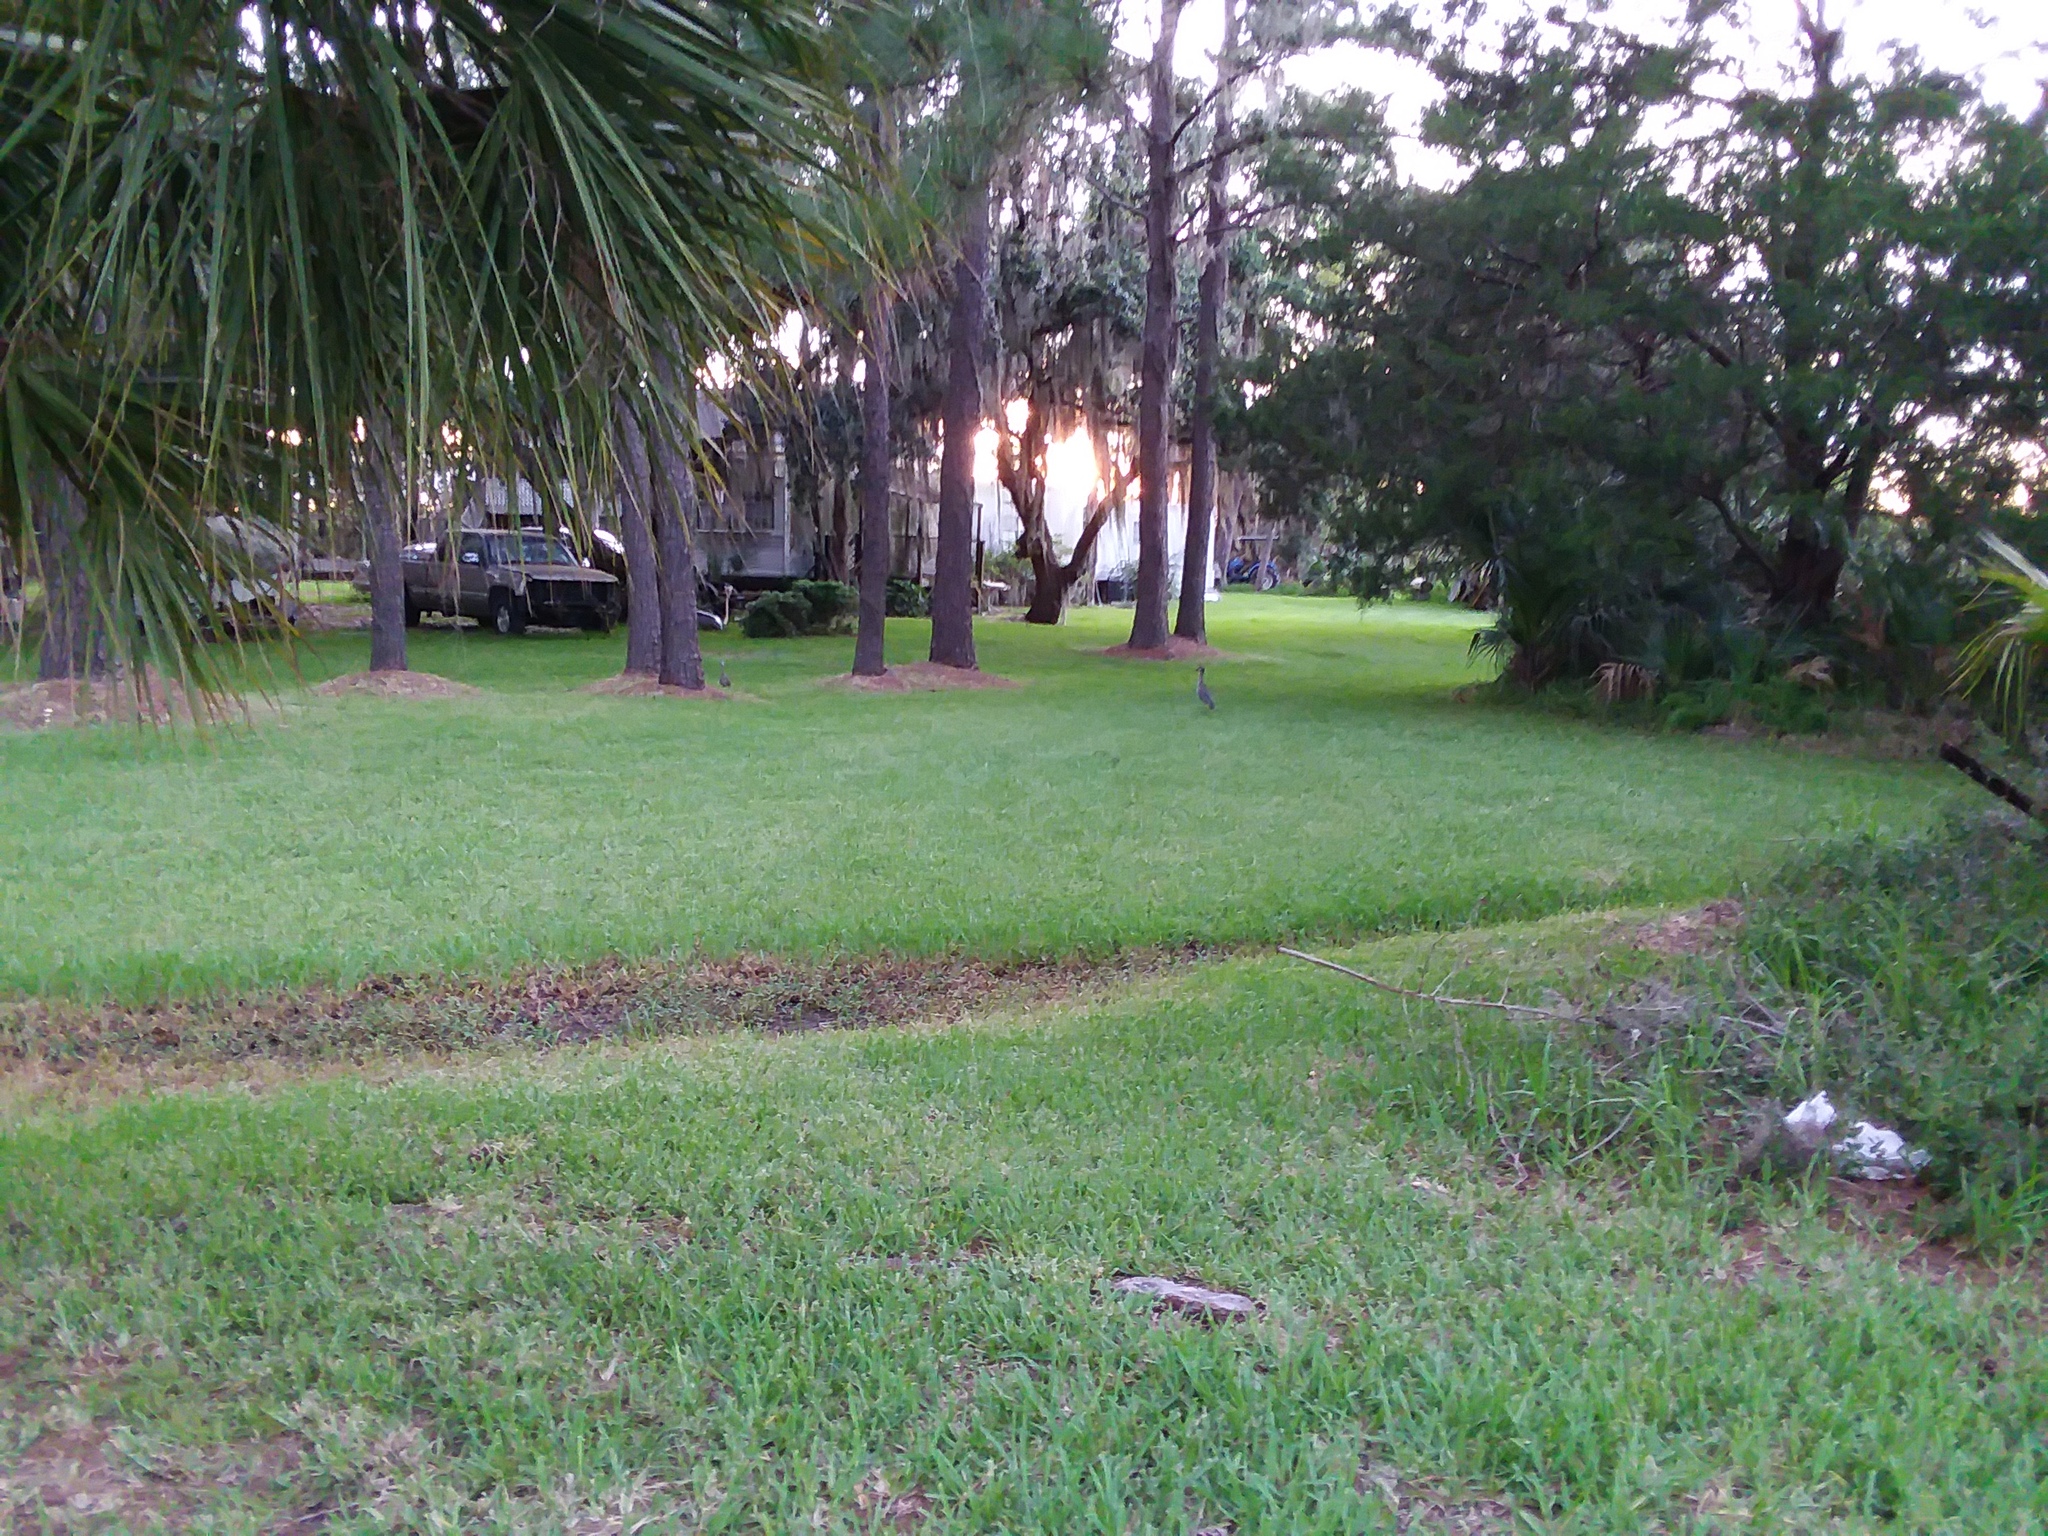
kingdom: Animalia
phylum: Chordata
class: Aves
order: Pelecaniformes
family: Ardeidae
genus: Nyctanassa
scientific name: Nyctanassa violacea
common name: Yellow-crowned night heron
